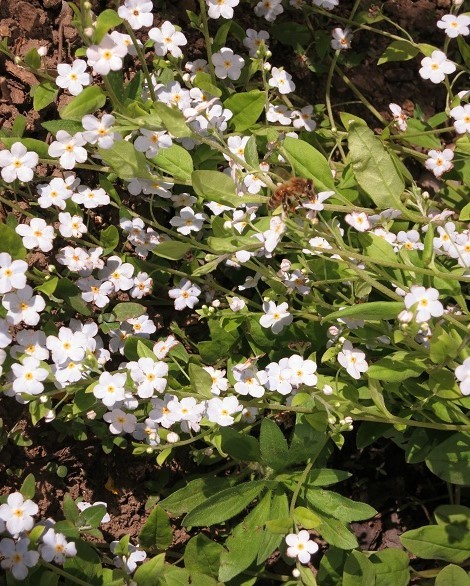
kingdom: Plantae
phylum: Tracheophyta
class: Magnoliopsida
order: Boraginales
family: Boraginaceae
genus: Trigonotis
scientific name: Trigonotis radicans
